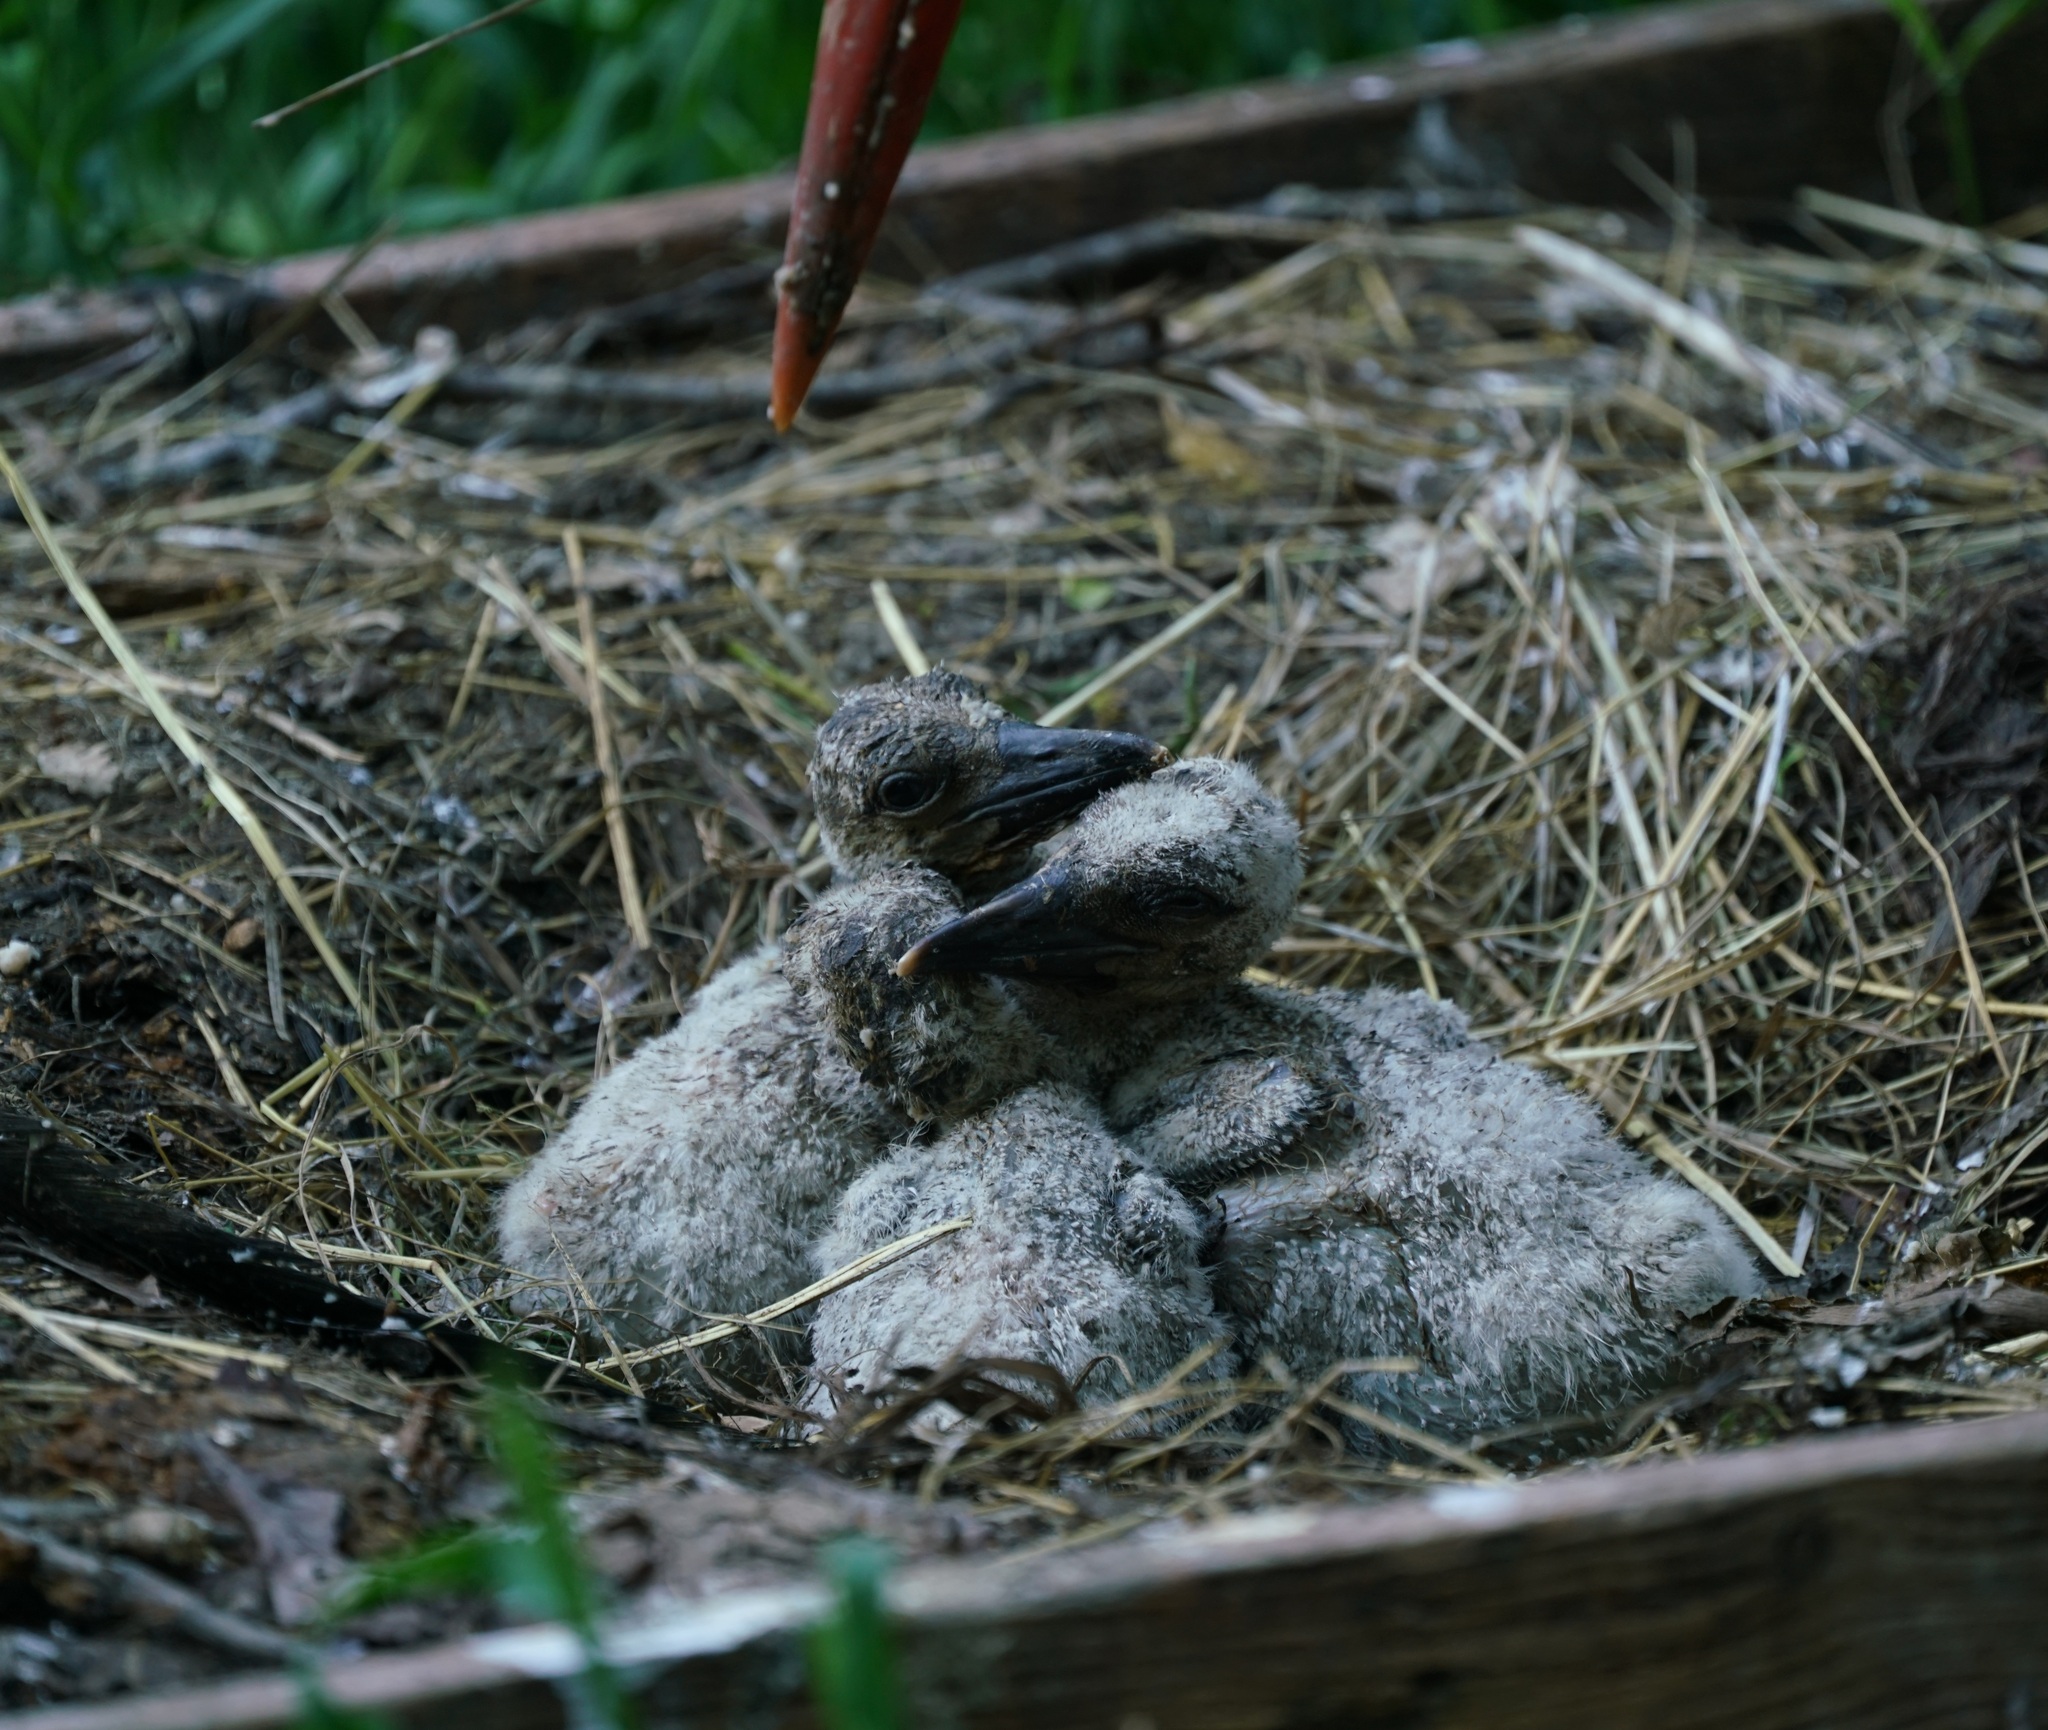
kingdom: Animalia
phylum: Chordata
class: Aves
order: Ciconiiformes
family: Ciconiidae
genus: Ciconia
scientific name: Ciconia ciconia
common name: White stork
